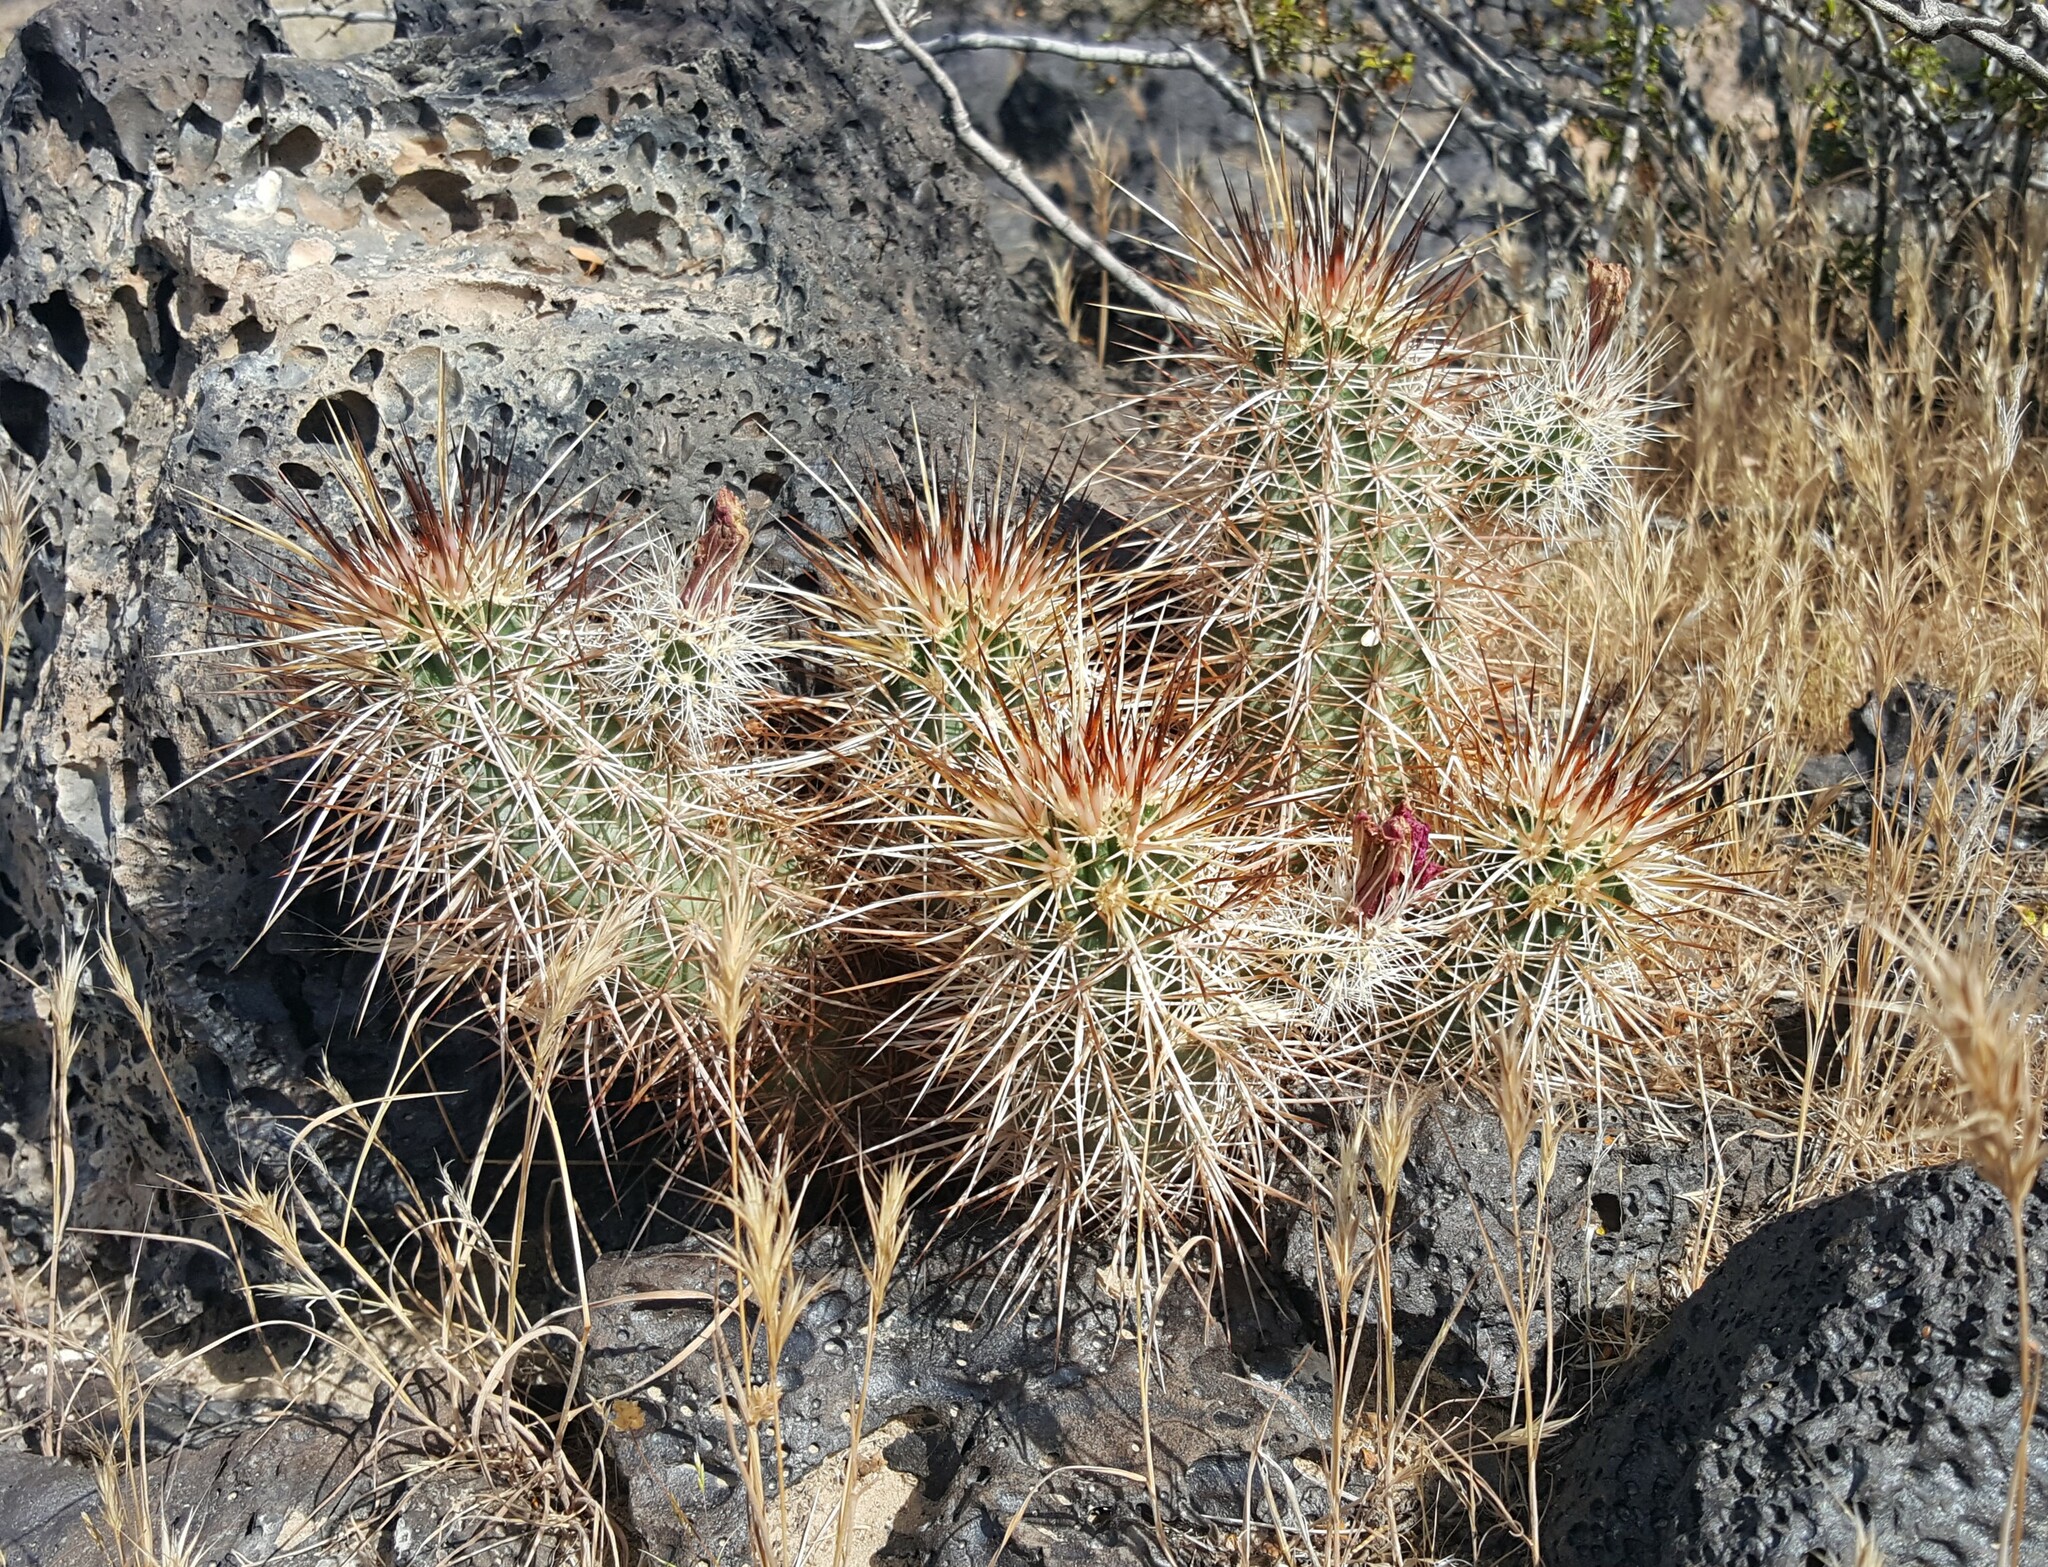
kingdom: Plantae
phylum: Tracheophyta
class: Magnoliopsida
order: Caryophyllales
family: Cactaceae
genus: Echinocereus
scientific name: Echinocereus engelmannii
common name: Engelmann's hedgehog cactus
